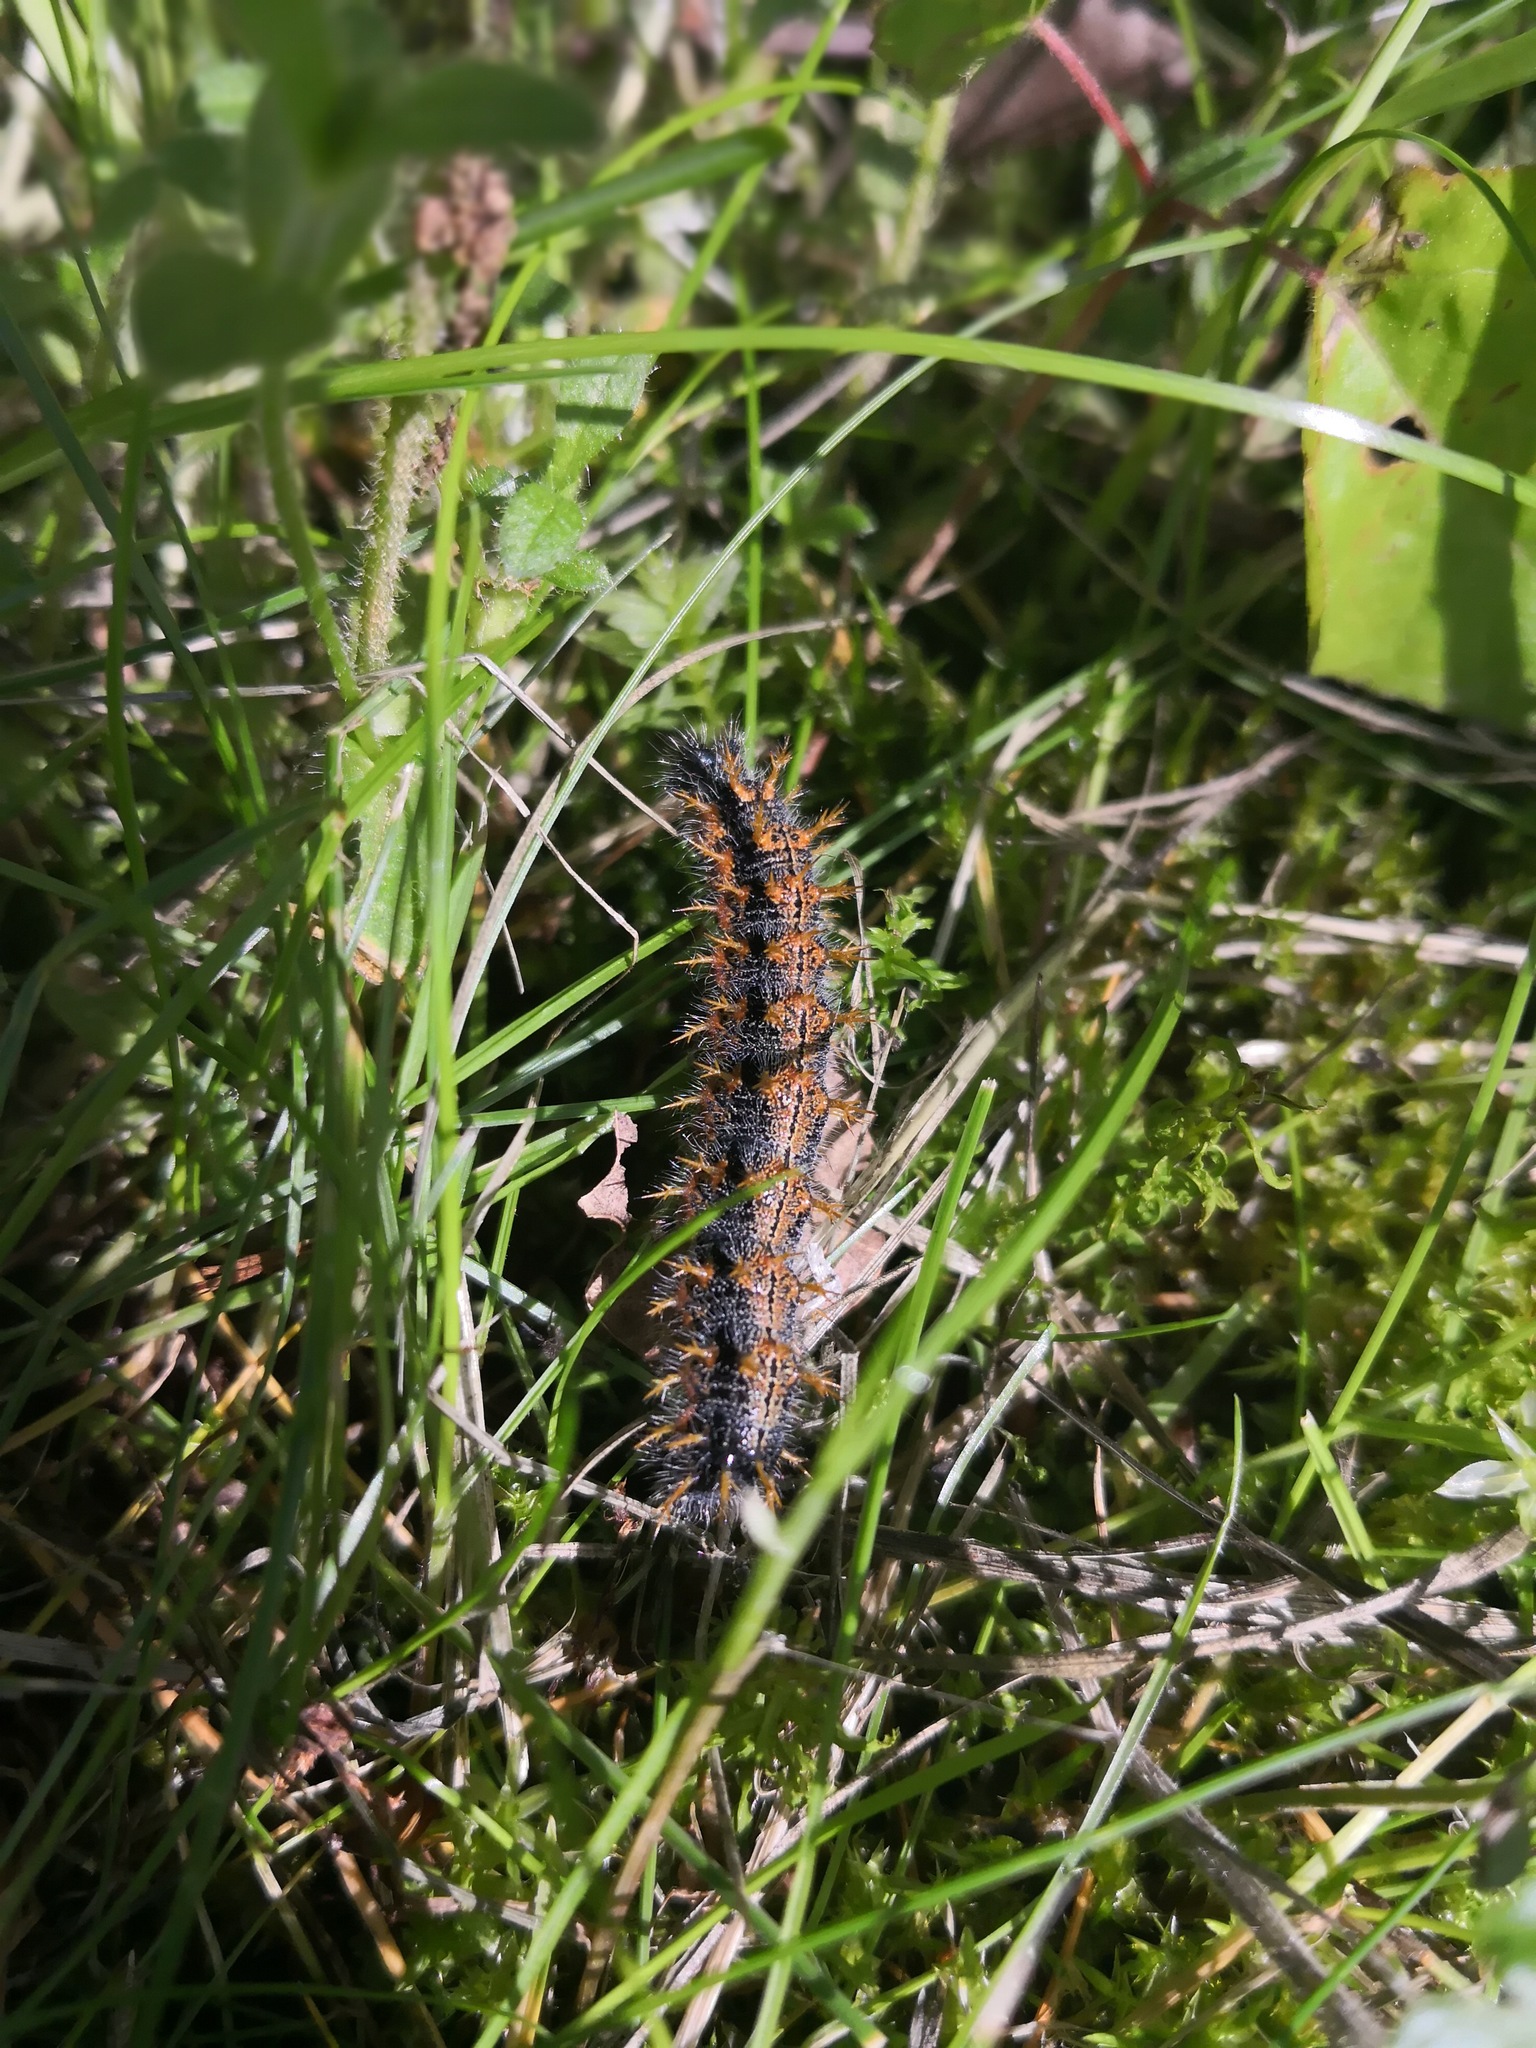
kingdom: Animalia
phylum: Arthropoda
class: Insecta
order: Lepidoptera
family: Nymphalidae
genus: Nymphalis
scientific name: Nymphalis polychloros
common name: Large tortoiseshell
